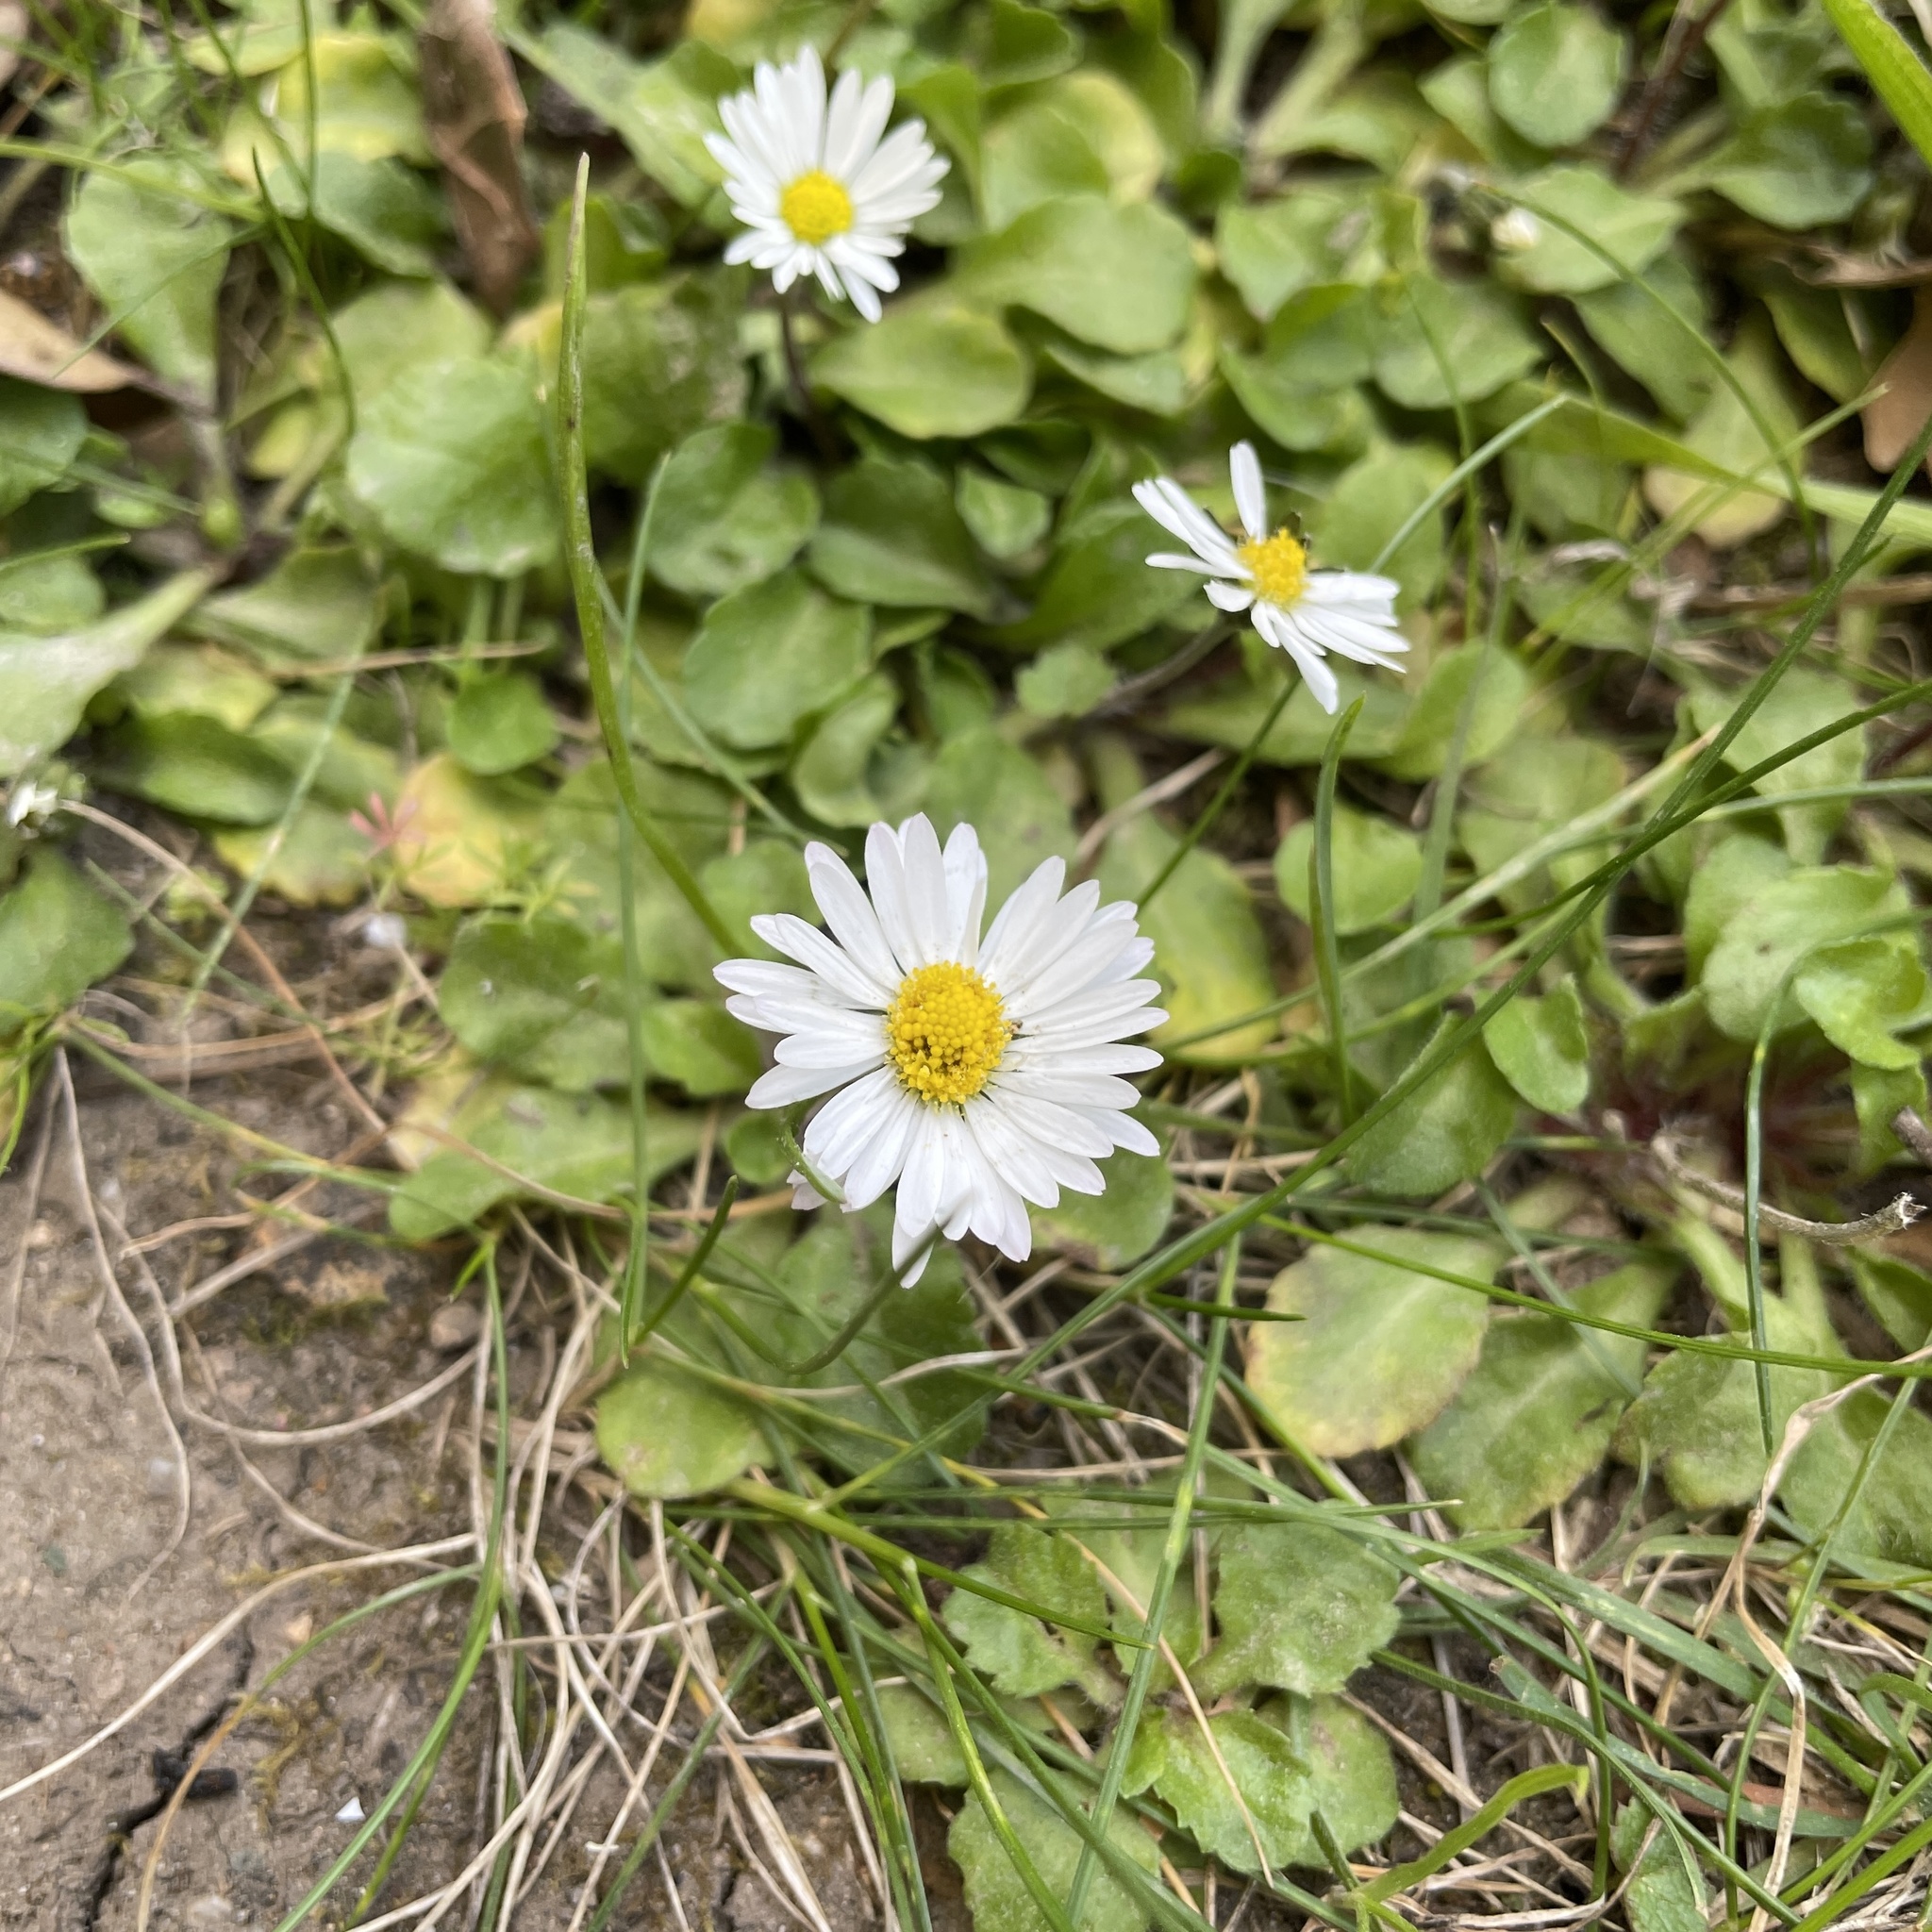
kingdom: Plantae
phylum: Tracheophyta
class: Magnoliopsida
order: Asterales
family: Asteraceae
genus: Bellis
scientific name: Bellis perennis
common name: Lawndaisy
